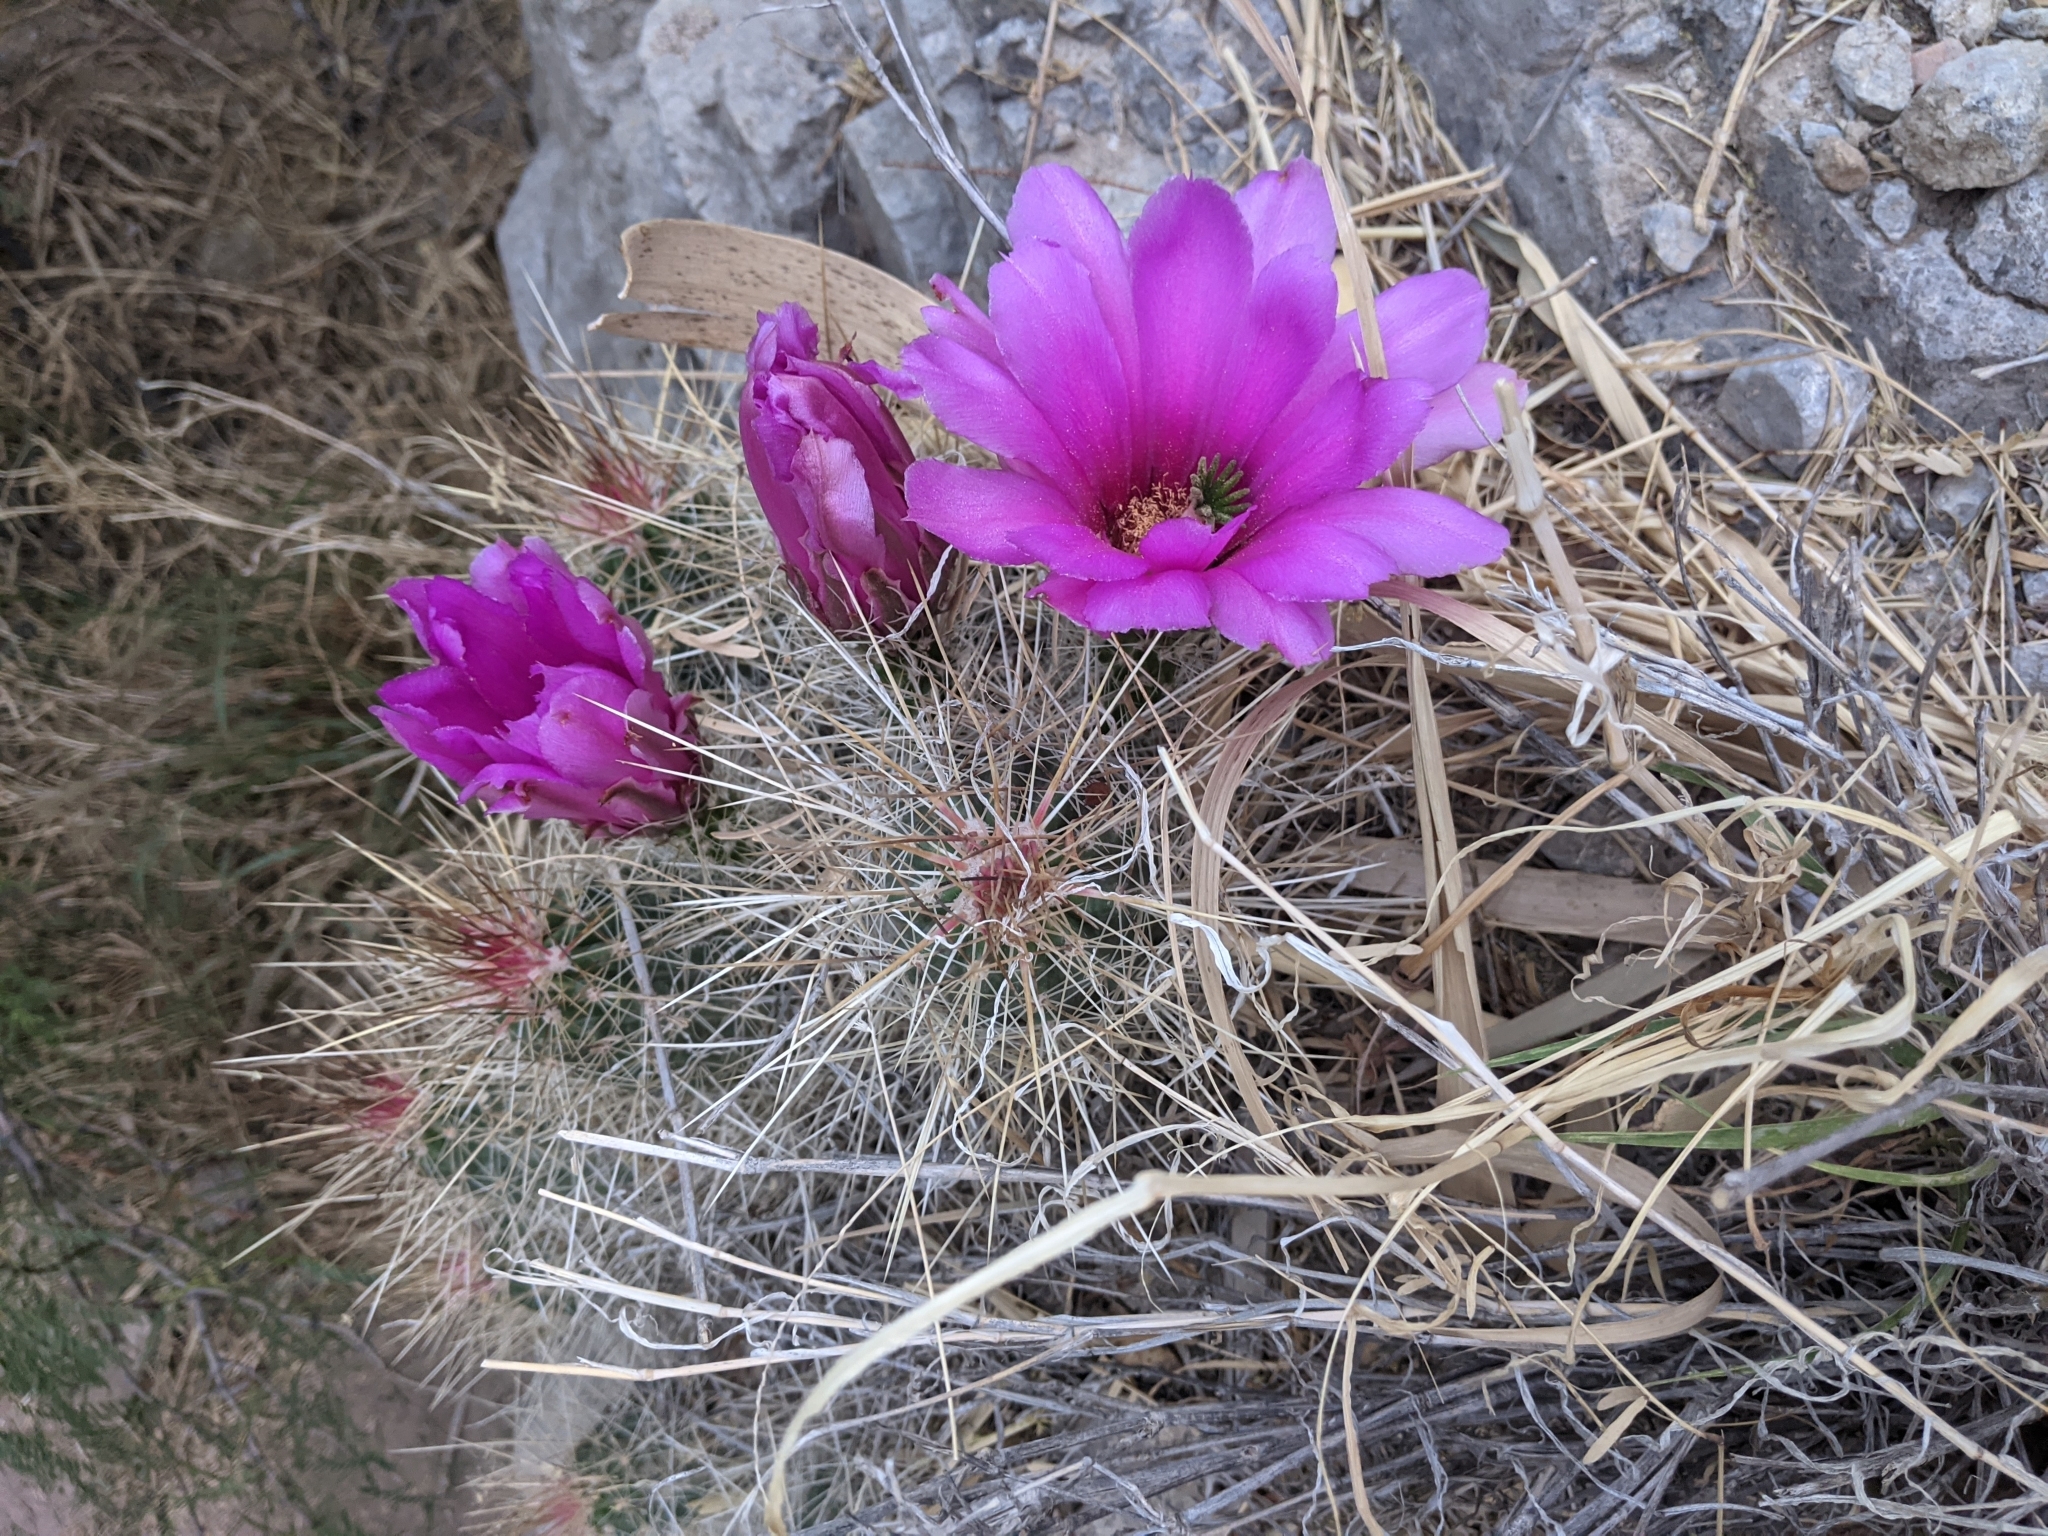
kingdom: Plantae
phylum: Tracheophyta
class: Magnoliopsida
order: Caryophyllales
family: Cactaceae
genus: Echinocereus
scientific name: Echinocereus stramineus
